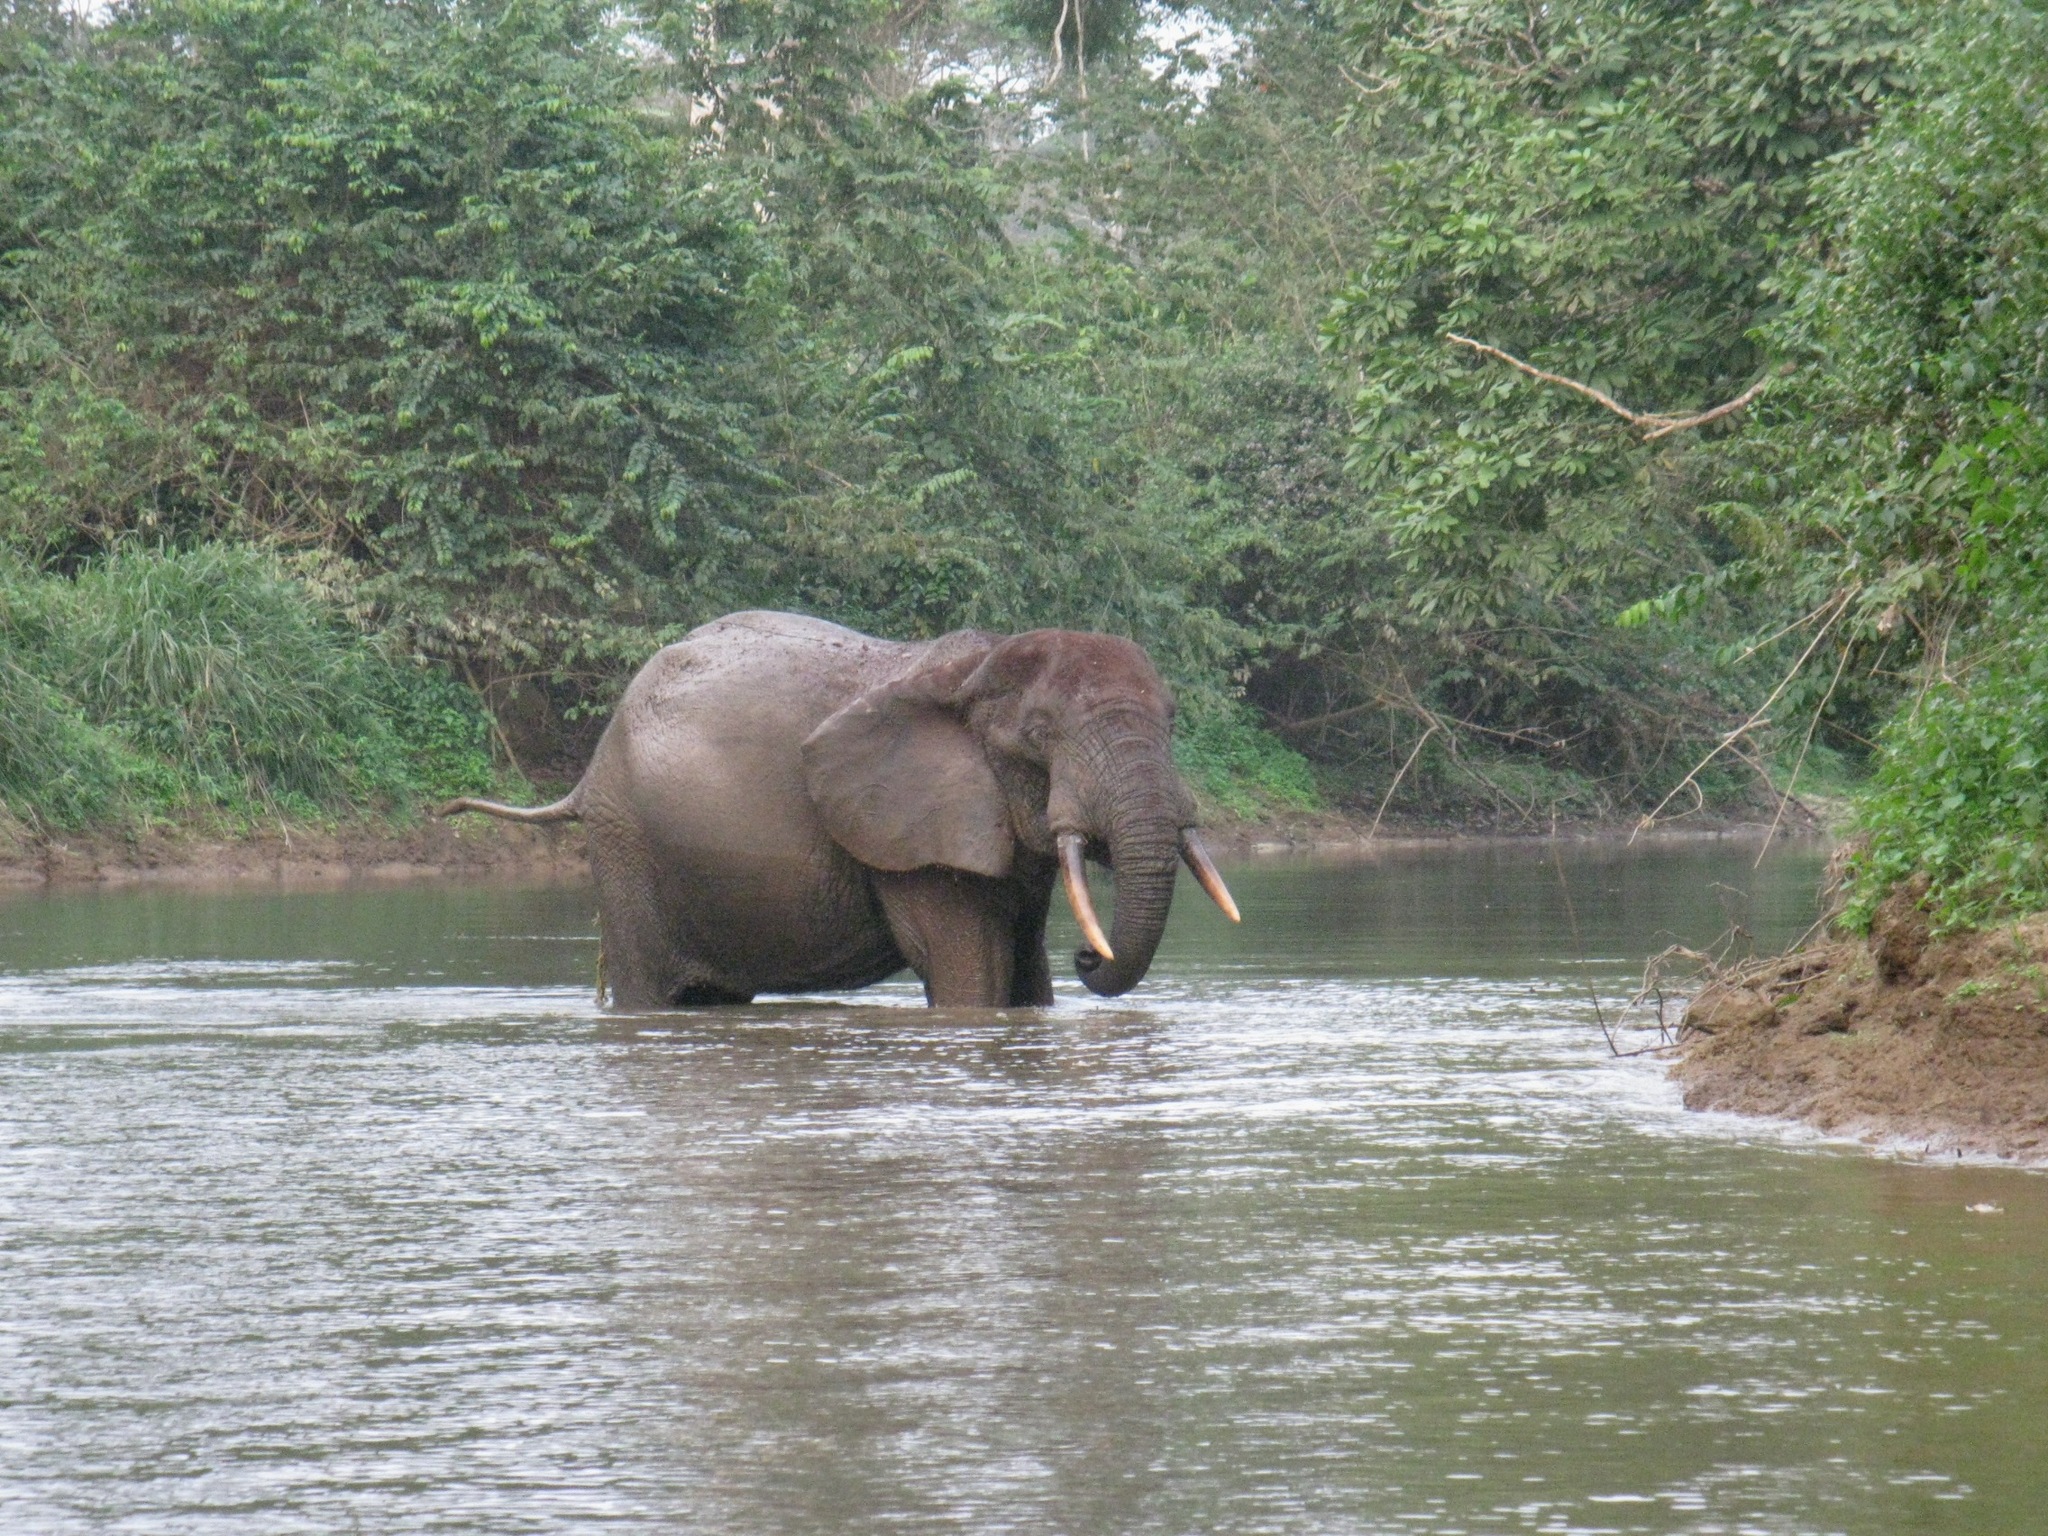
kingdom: Animalia
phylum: Chordata
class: Mammalia
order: Proboscidea
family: Elephantidae
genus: Loxodonta
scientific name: Loxodonta cyclotis
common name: African forest elephant
